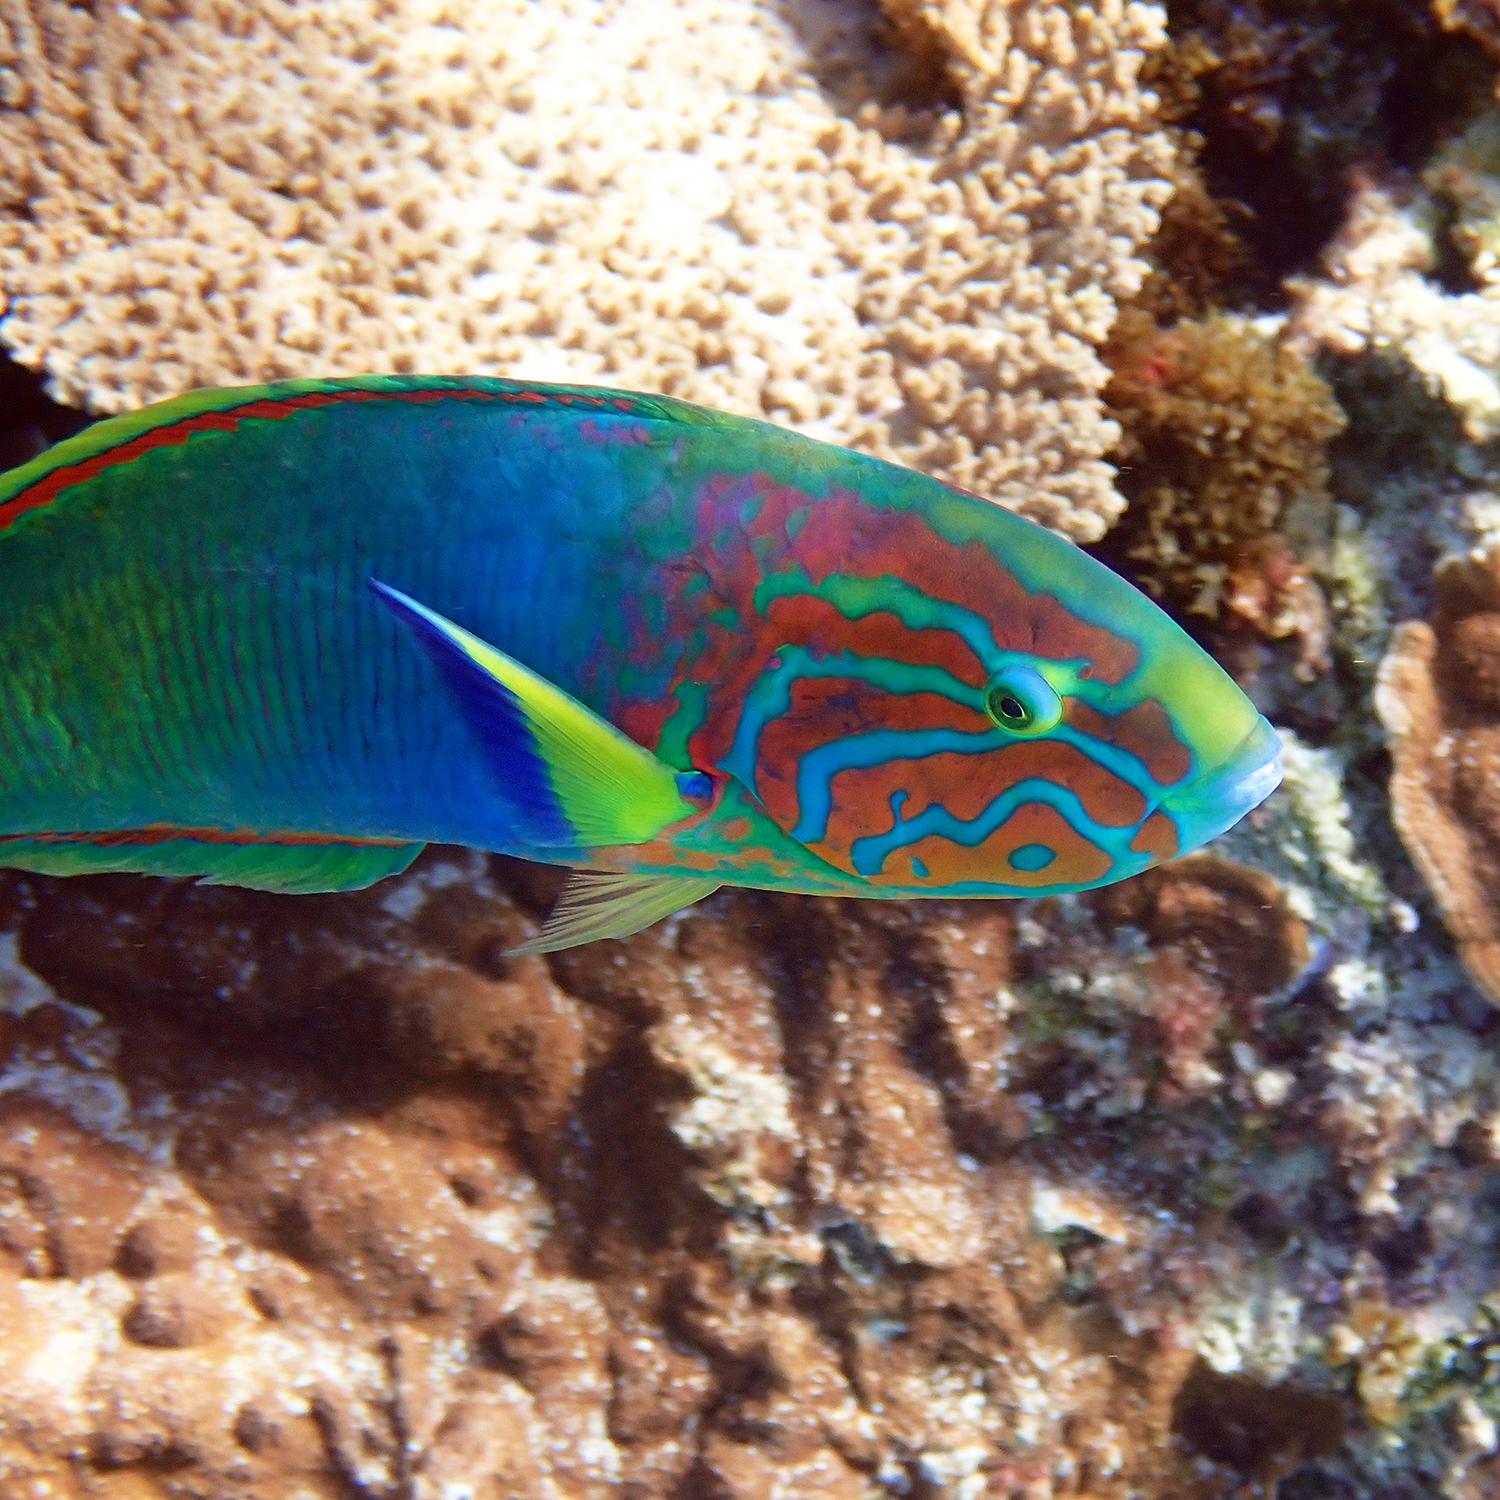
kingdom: Animalia
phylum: Chordata
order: Perciformes
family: Labridae
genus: Thalassoma
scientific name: Thalassoma lutescens
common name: Green moon wrasse
